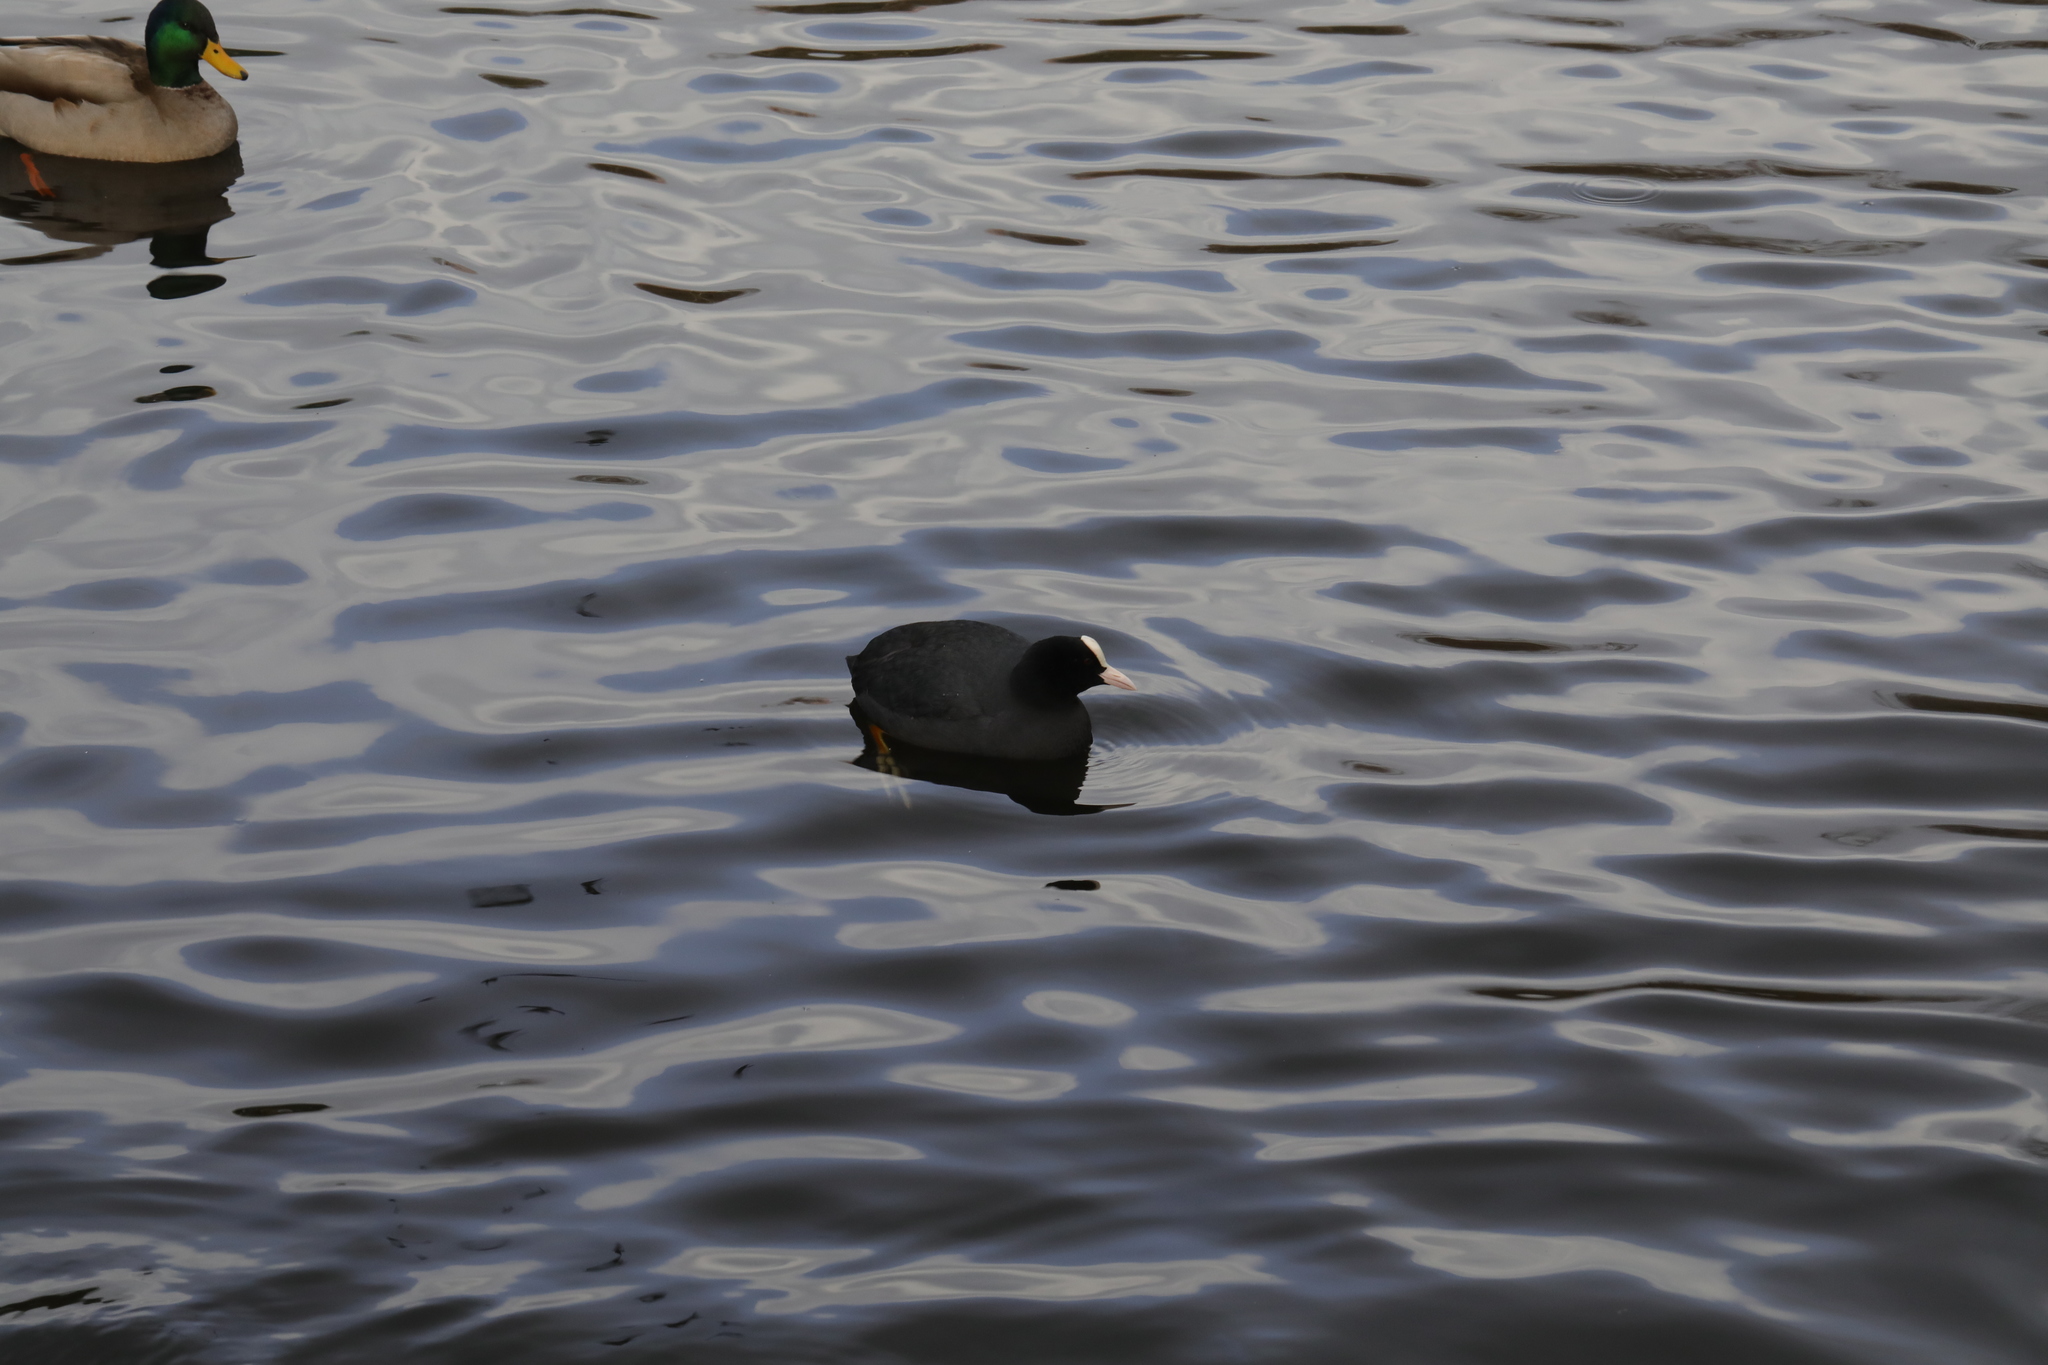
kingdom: Animalia
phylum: Chordata
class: Aves
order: Gruiformes
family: Rallidae
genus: Fulica
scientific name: Fulica atra
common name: Eurasian coot
